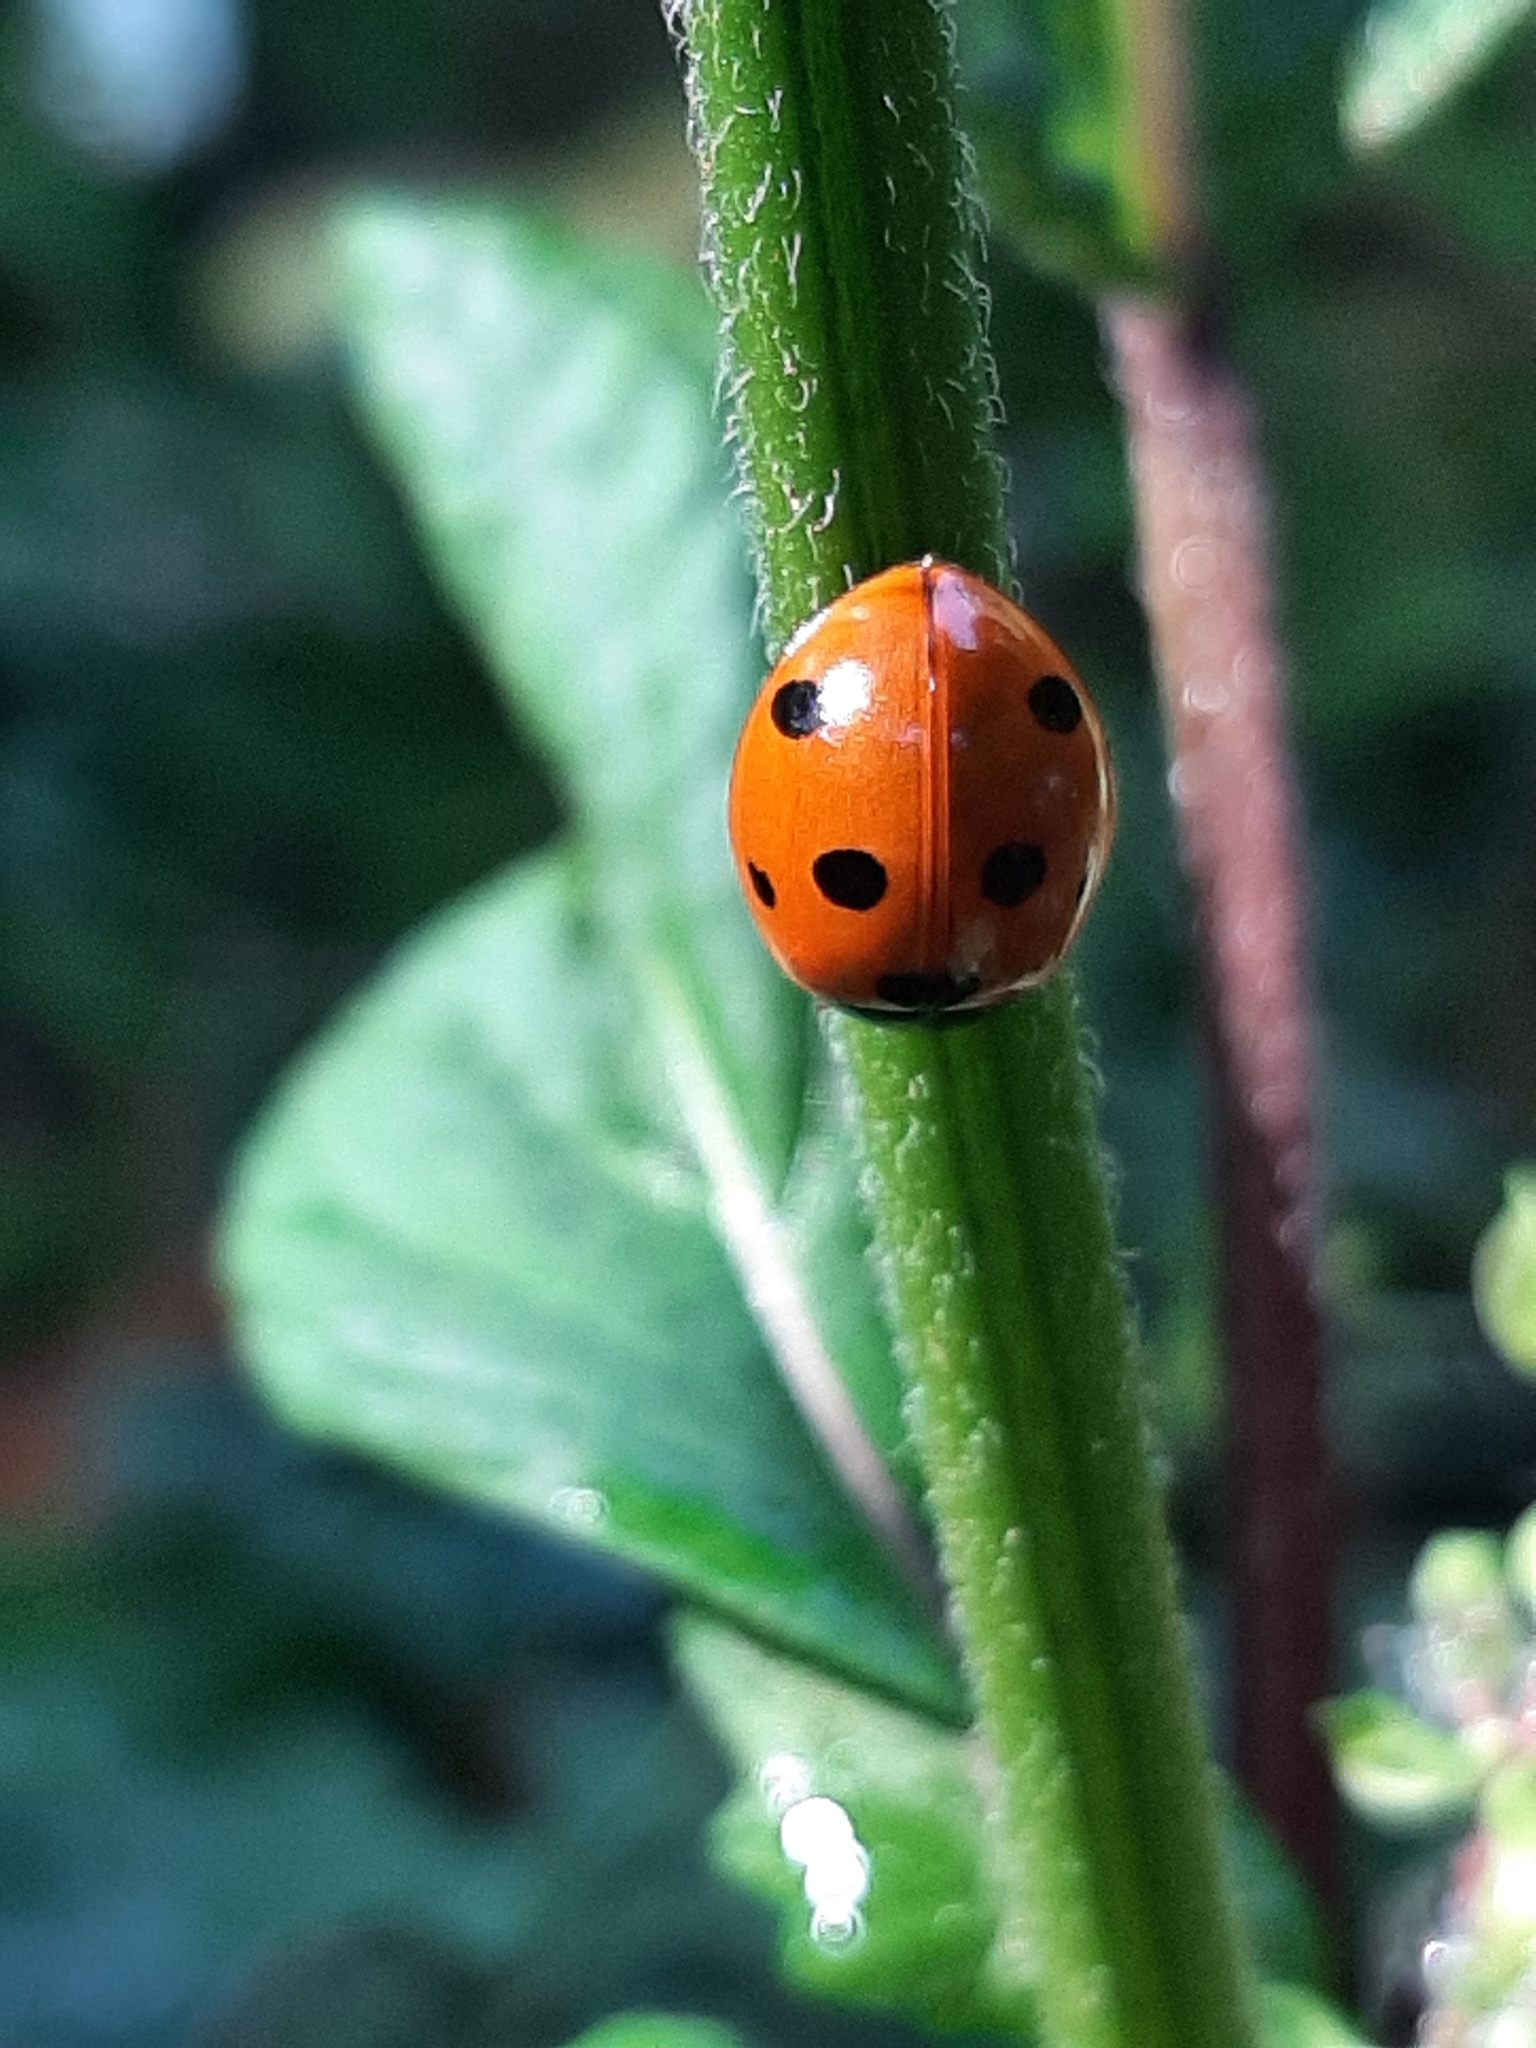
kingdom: Animalia
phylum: Arthropoda
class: Insecta
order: Coleoptera
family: Coccinellidae
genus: Coccinella
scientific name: Coccinella septempunctata
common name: Sevenspotted lady beetle
